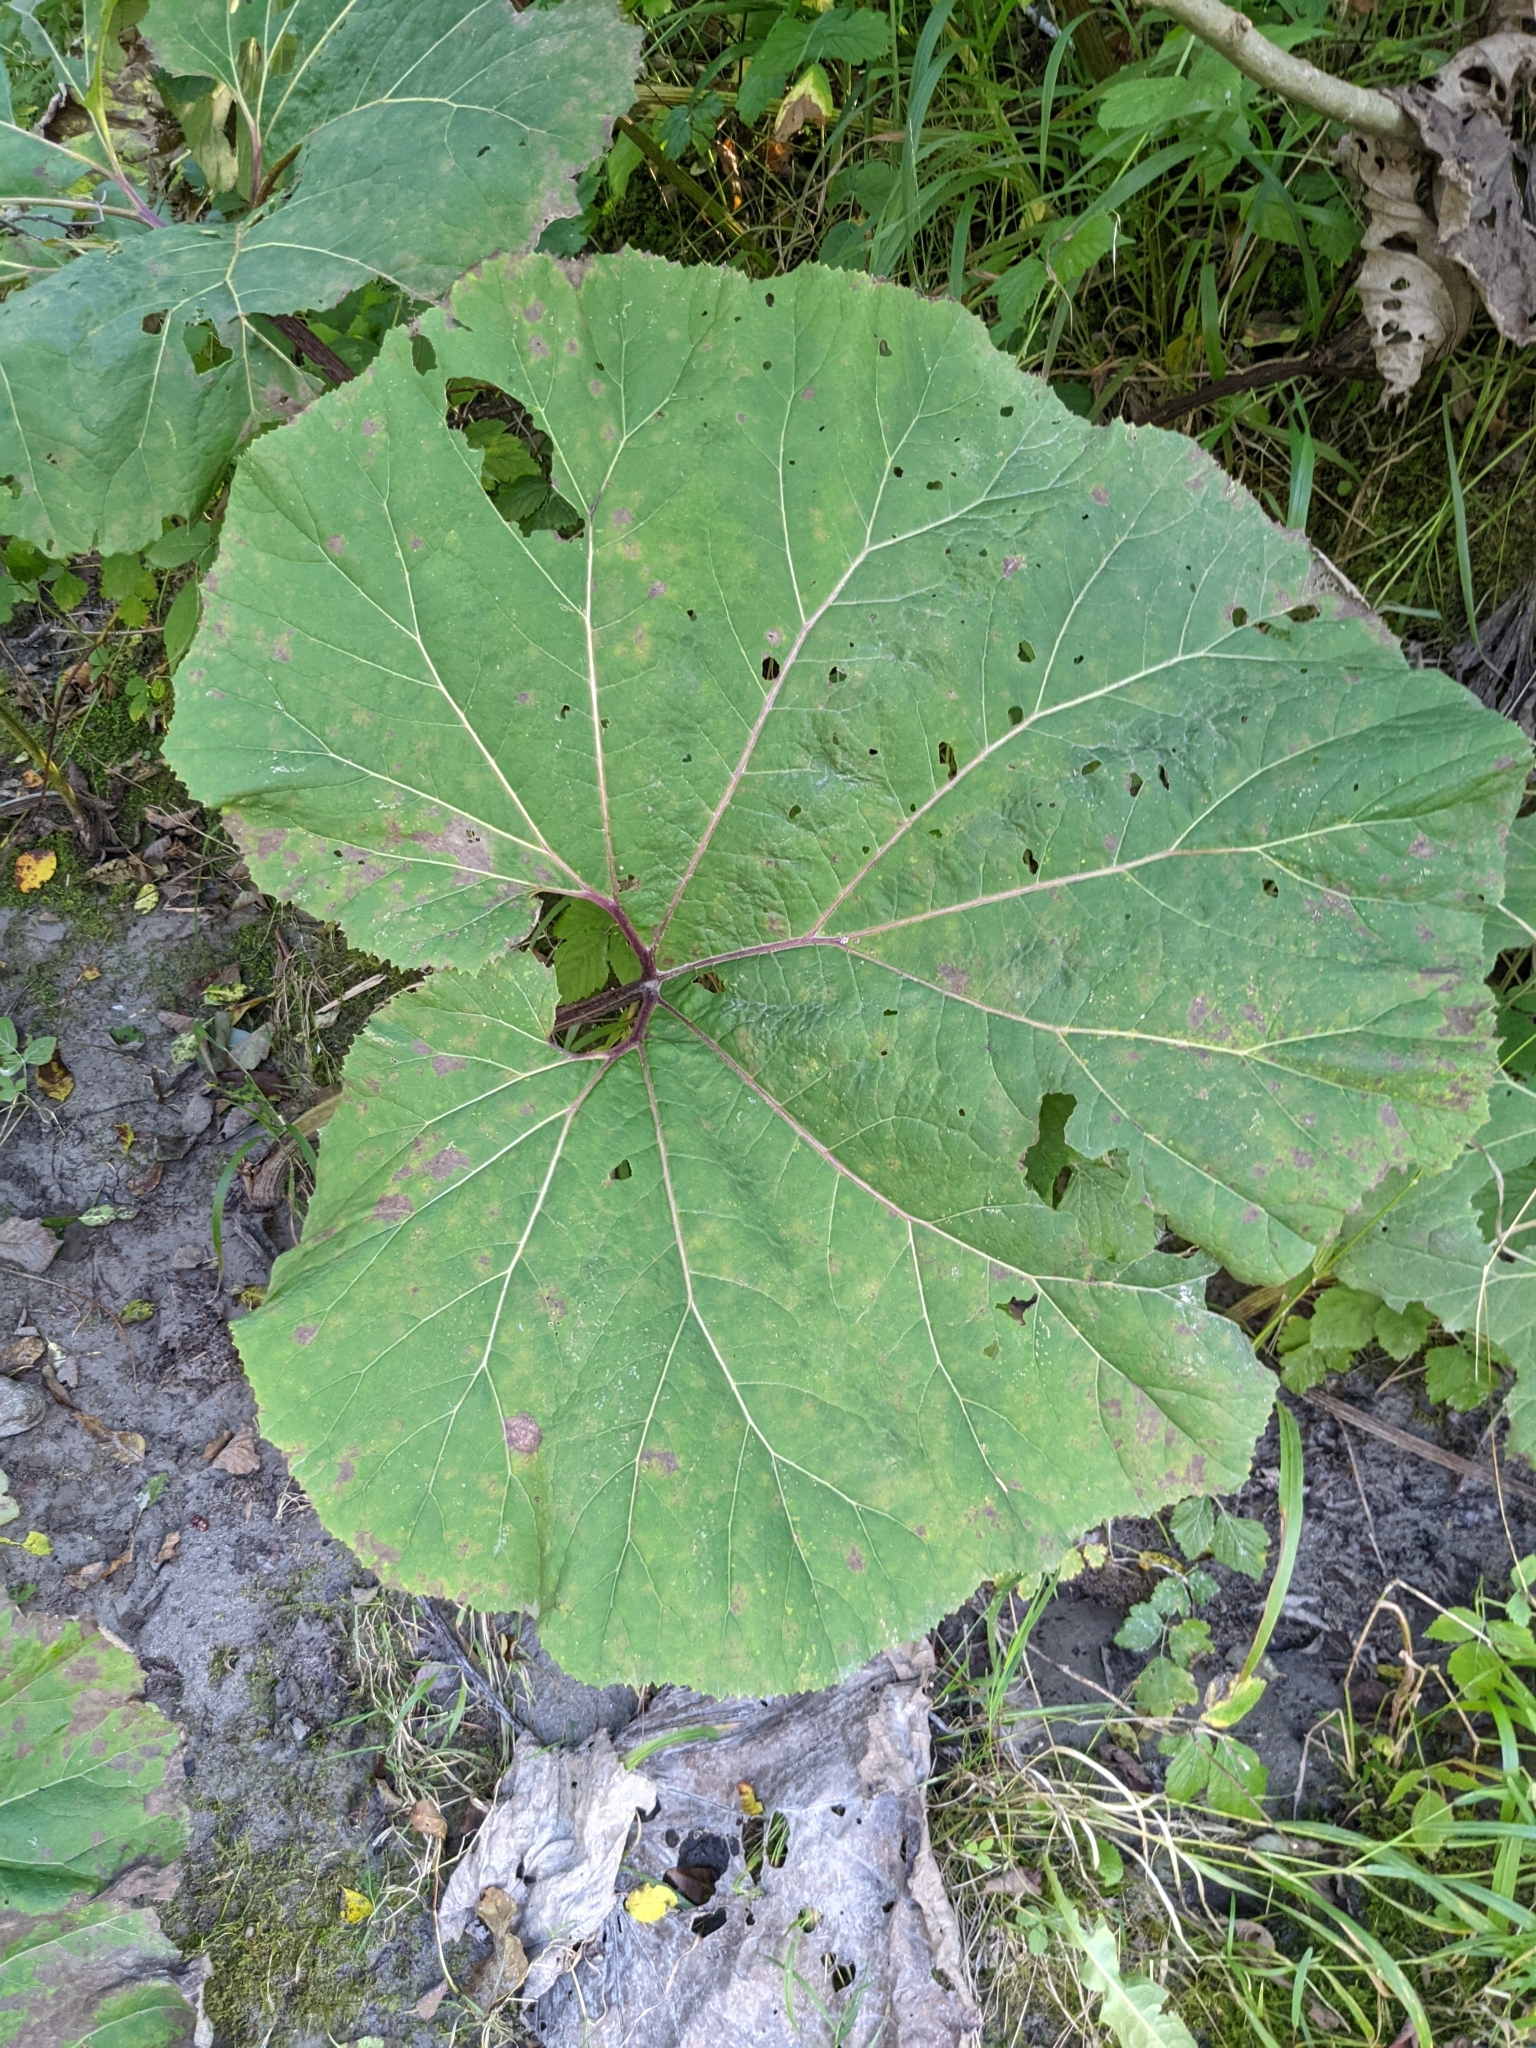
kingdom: Plantae
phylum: Tracheophyta
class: Magnoliopsida
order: Asterales
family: Asteraceae
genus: Petasites
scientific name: Petasites hybridus
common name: Butterbur
